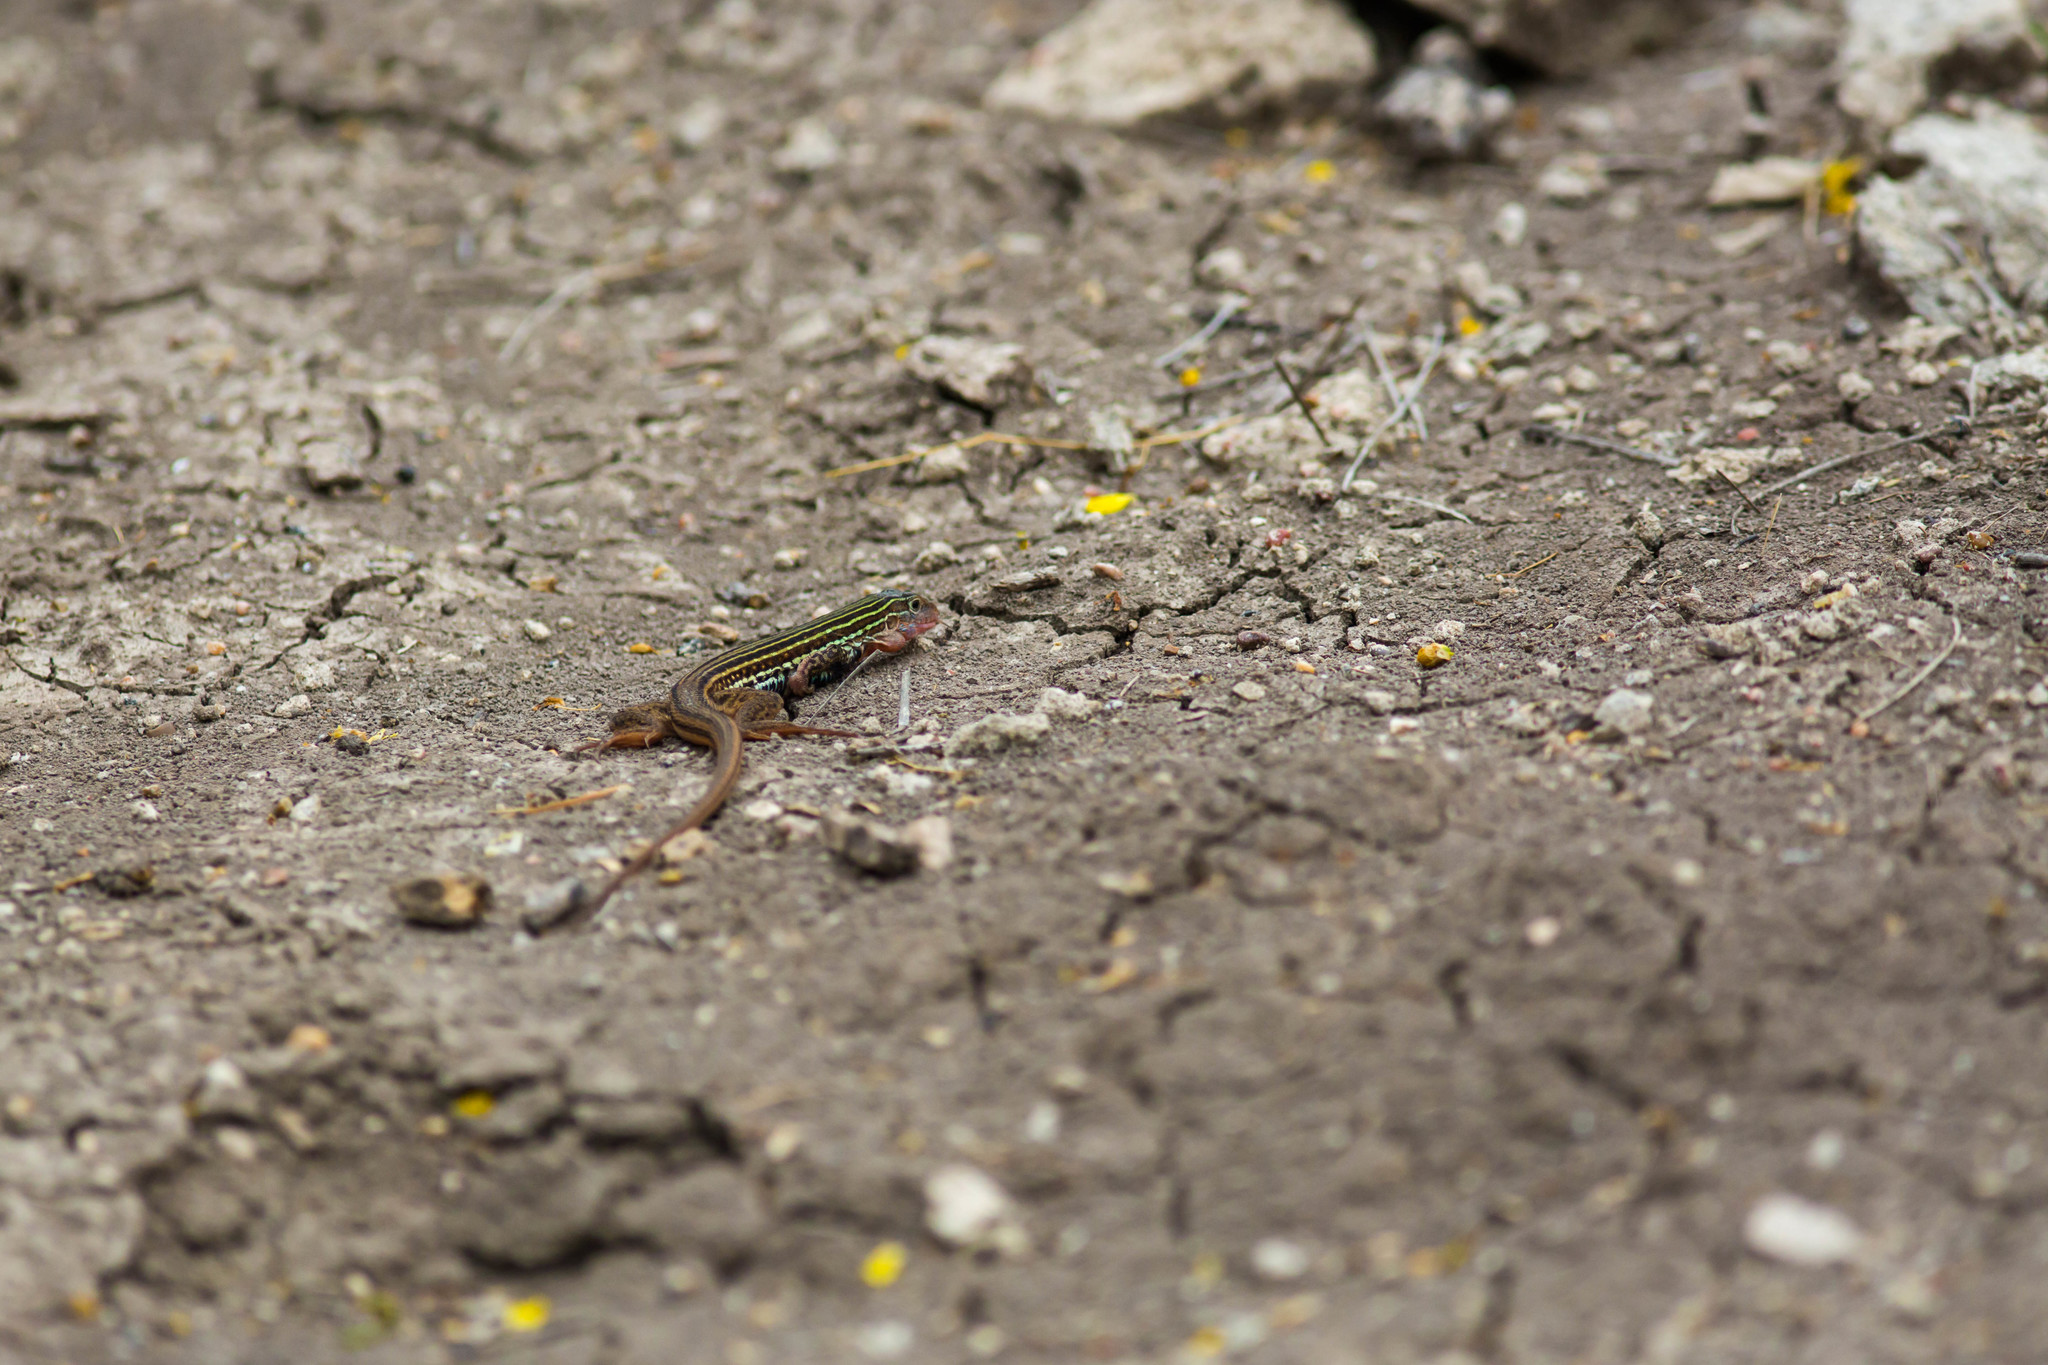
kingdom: Animalia
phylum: Chordata
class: Squamata
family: Teiidae
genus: Aspidoscelis
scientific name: Aspidoscelis gularis
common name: Eastern spotted whiptail
